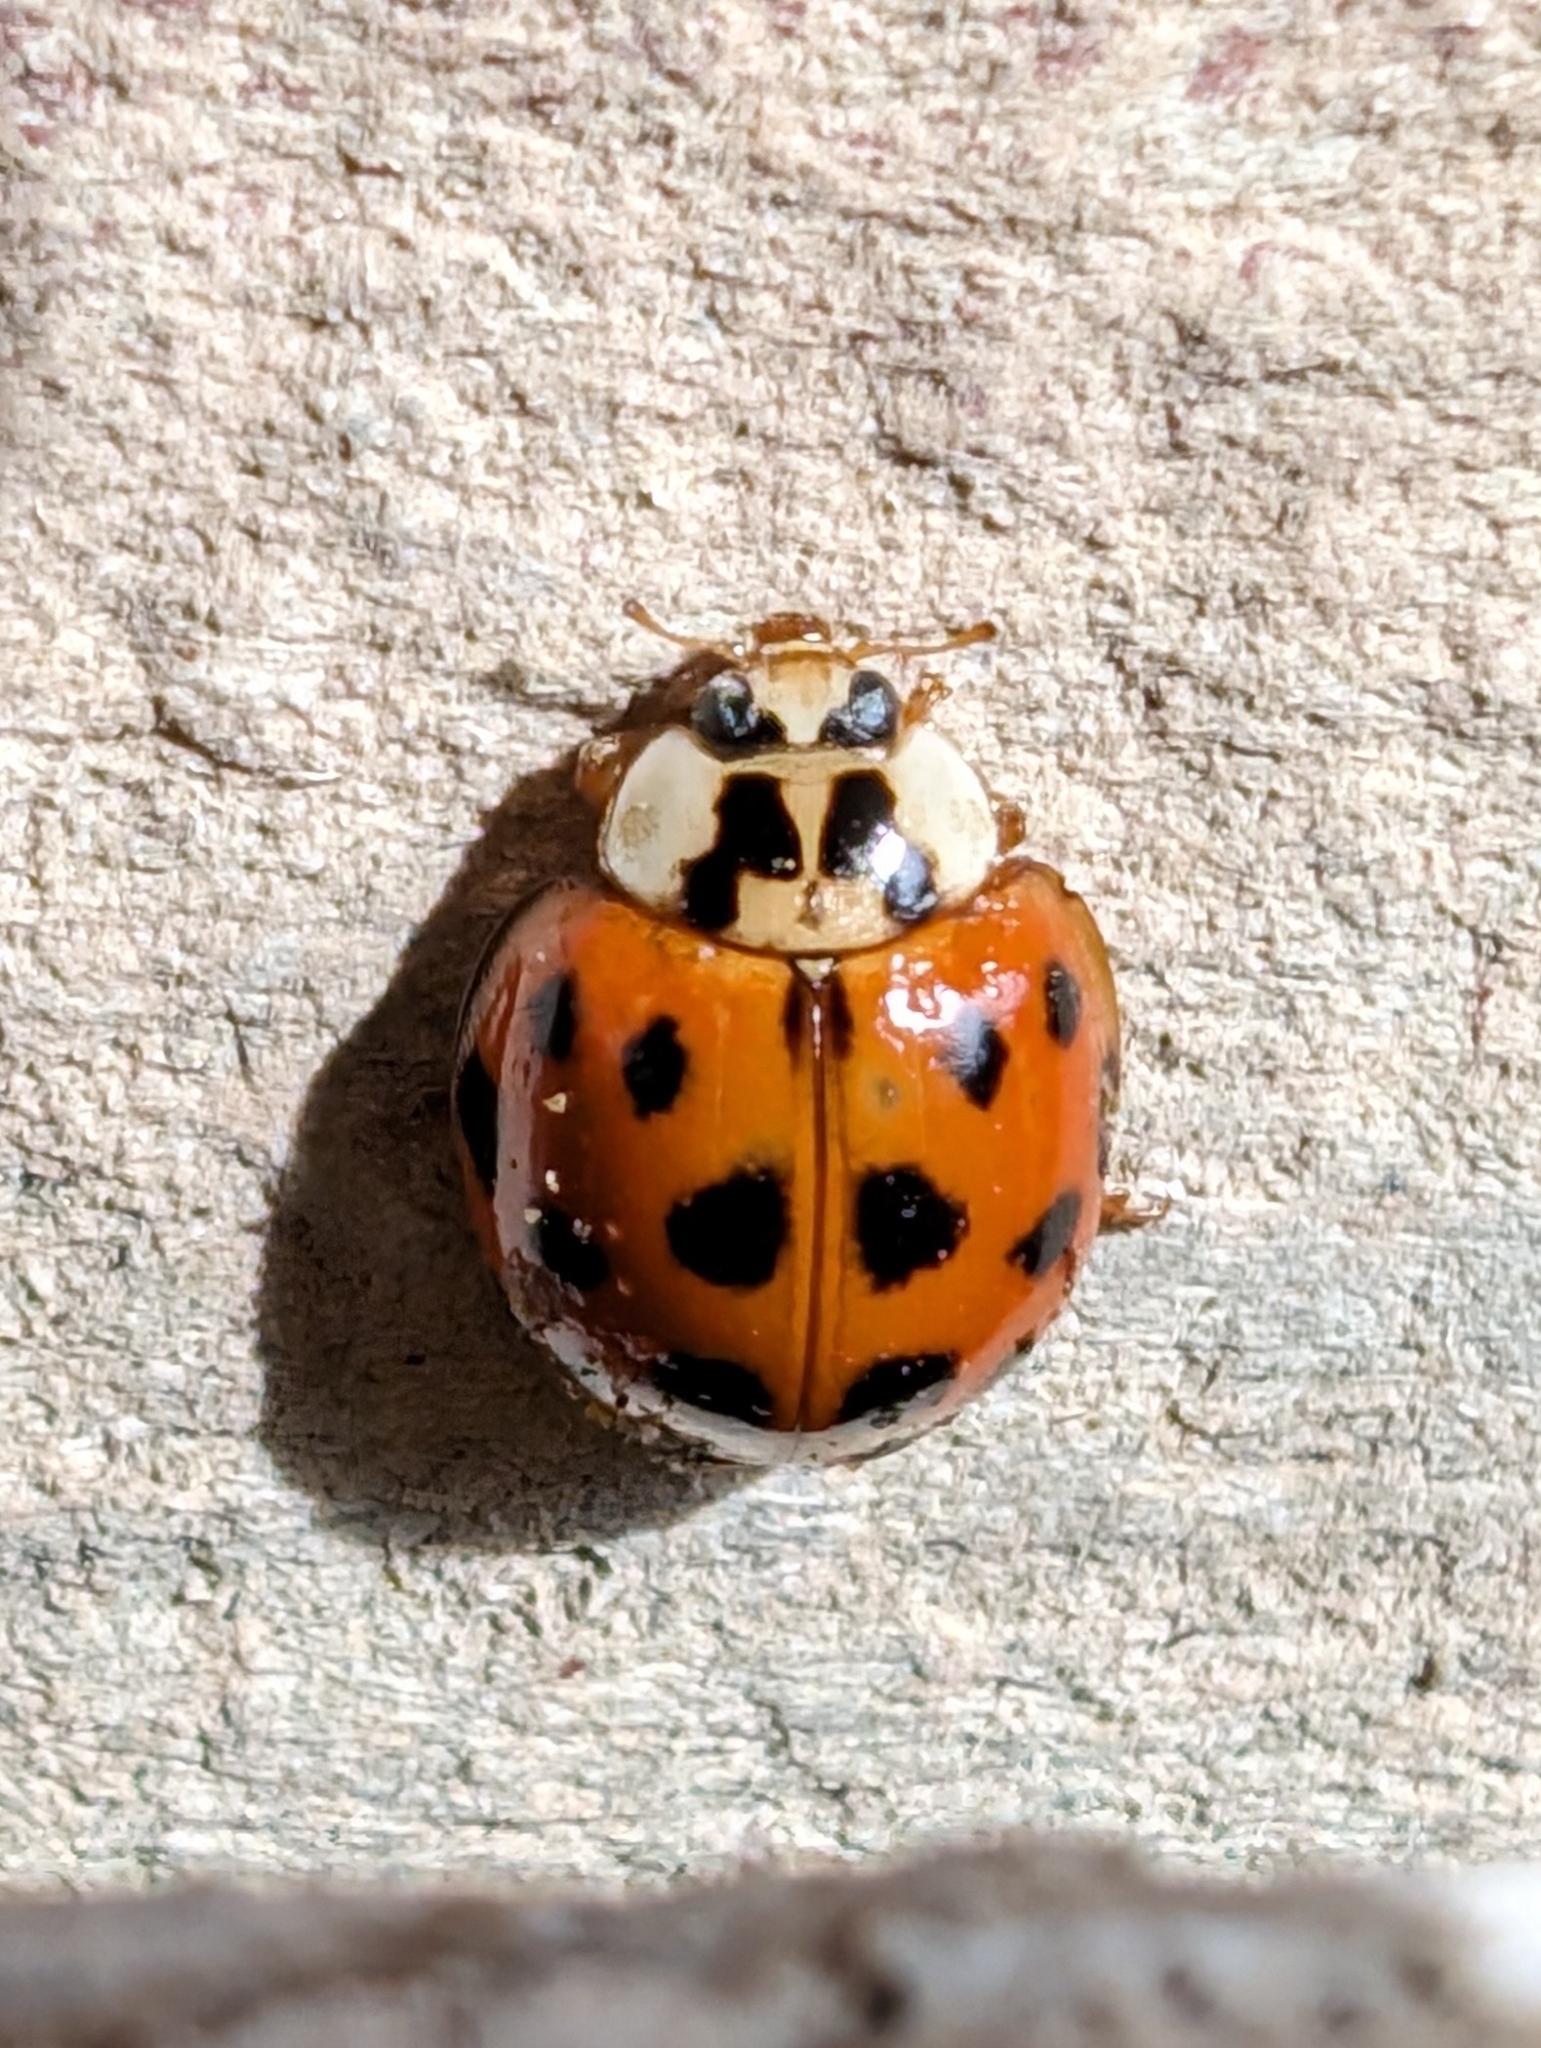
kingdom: Animalia
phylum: Arthropoda
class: Insecta
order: Coleoptera
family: Coccinellidae
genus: Harmonia
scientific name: Harmonia axyridis
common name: Harlequin ladybird
